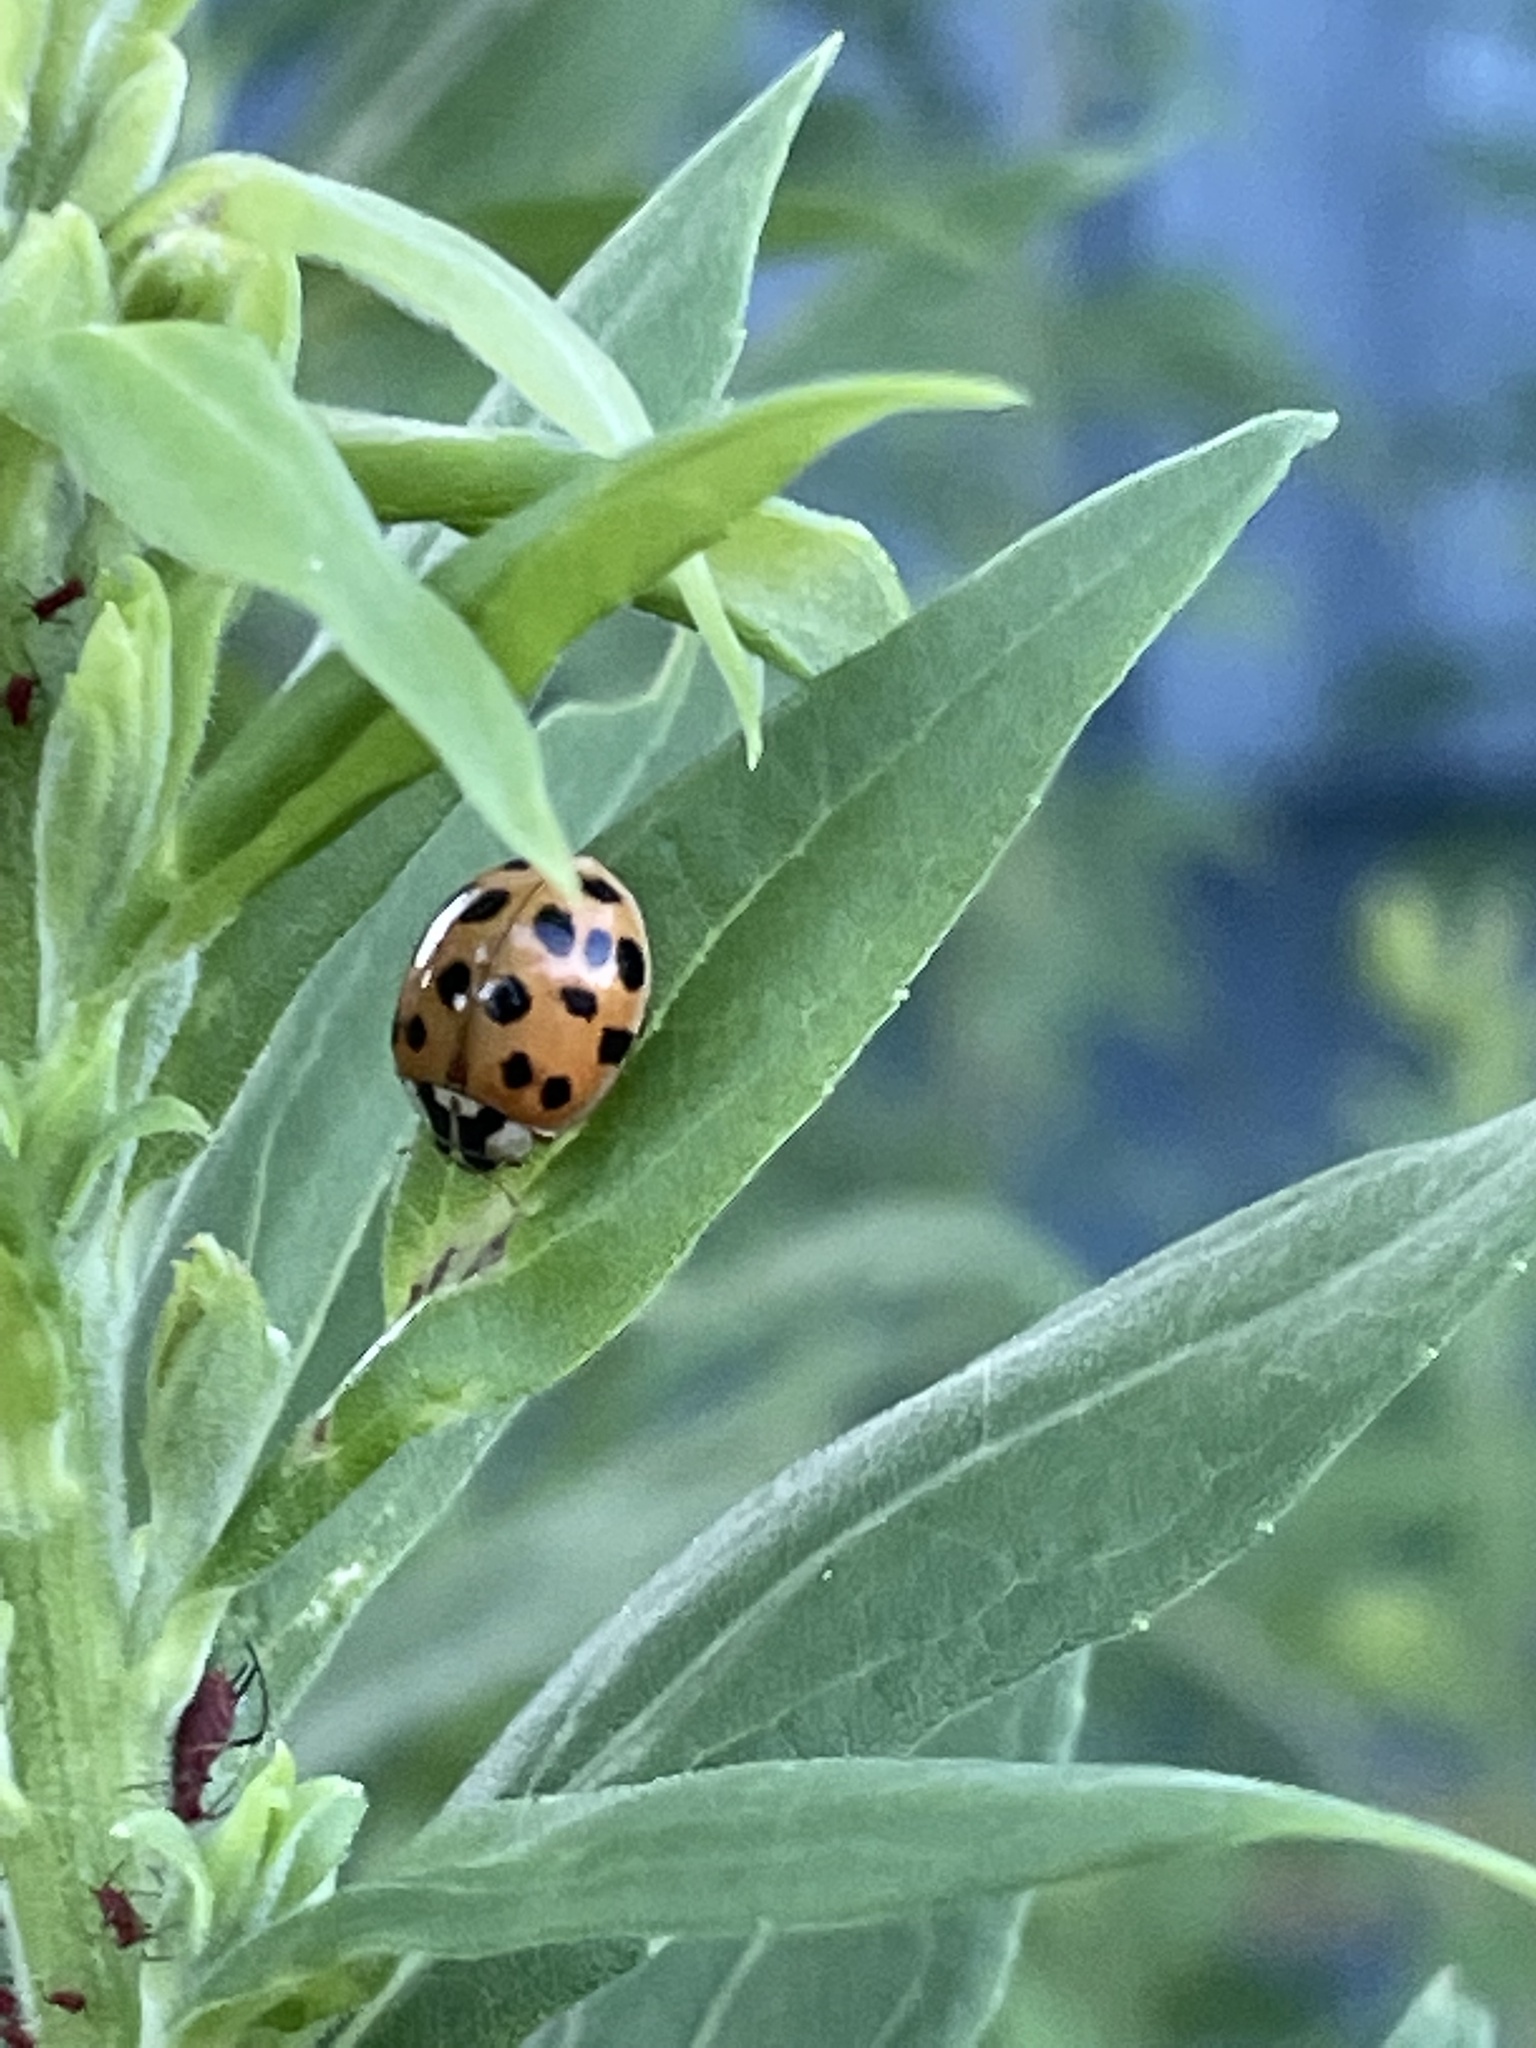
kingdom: Animalia
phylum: Arthropoda
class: Insecta
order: Coleoptera
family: Coccinellidae
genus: Harmonia
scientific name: Harmonia axyridis
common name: Harlequin ladybird
